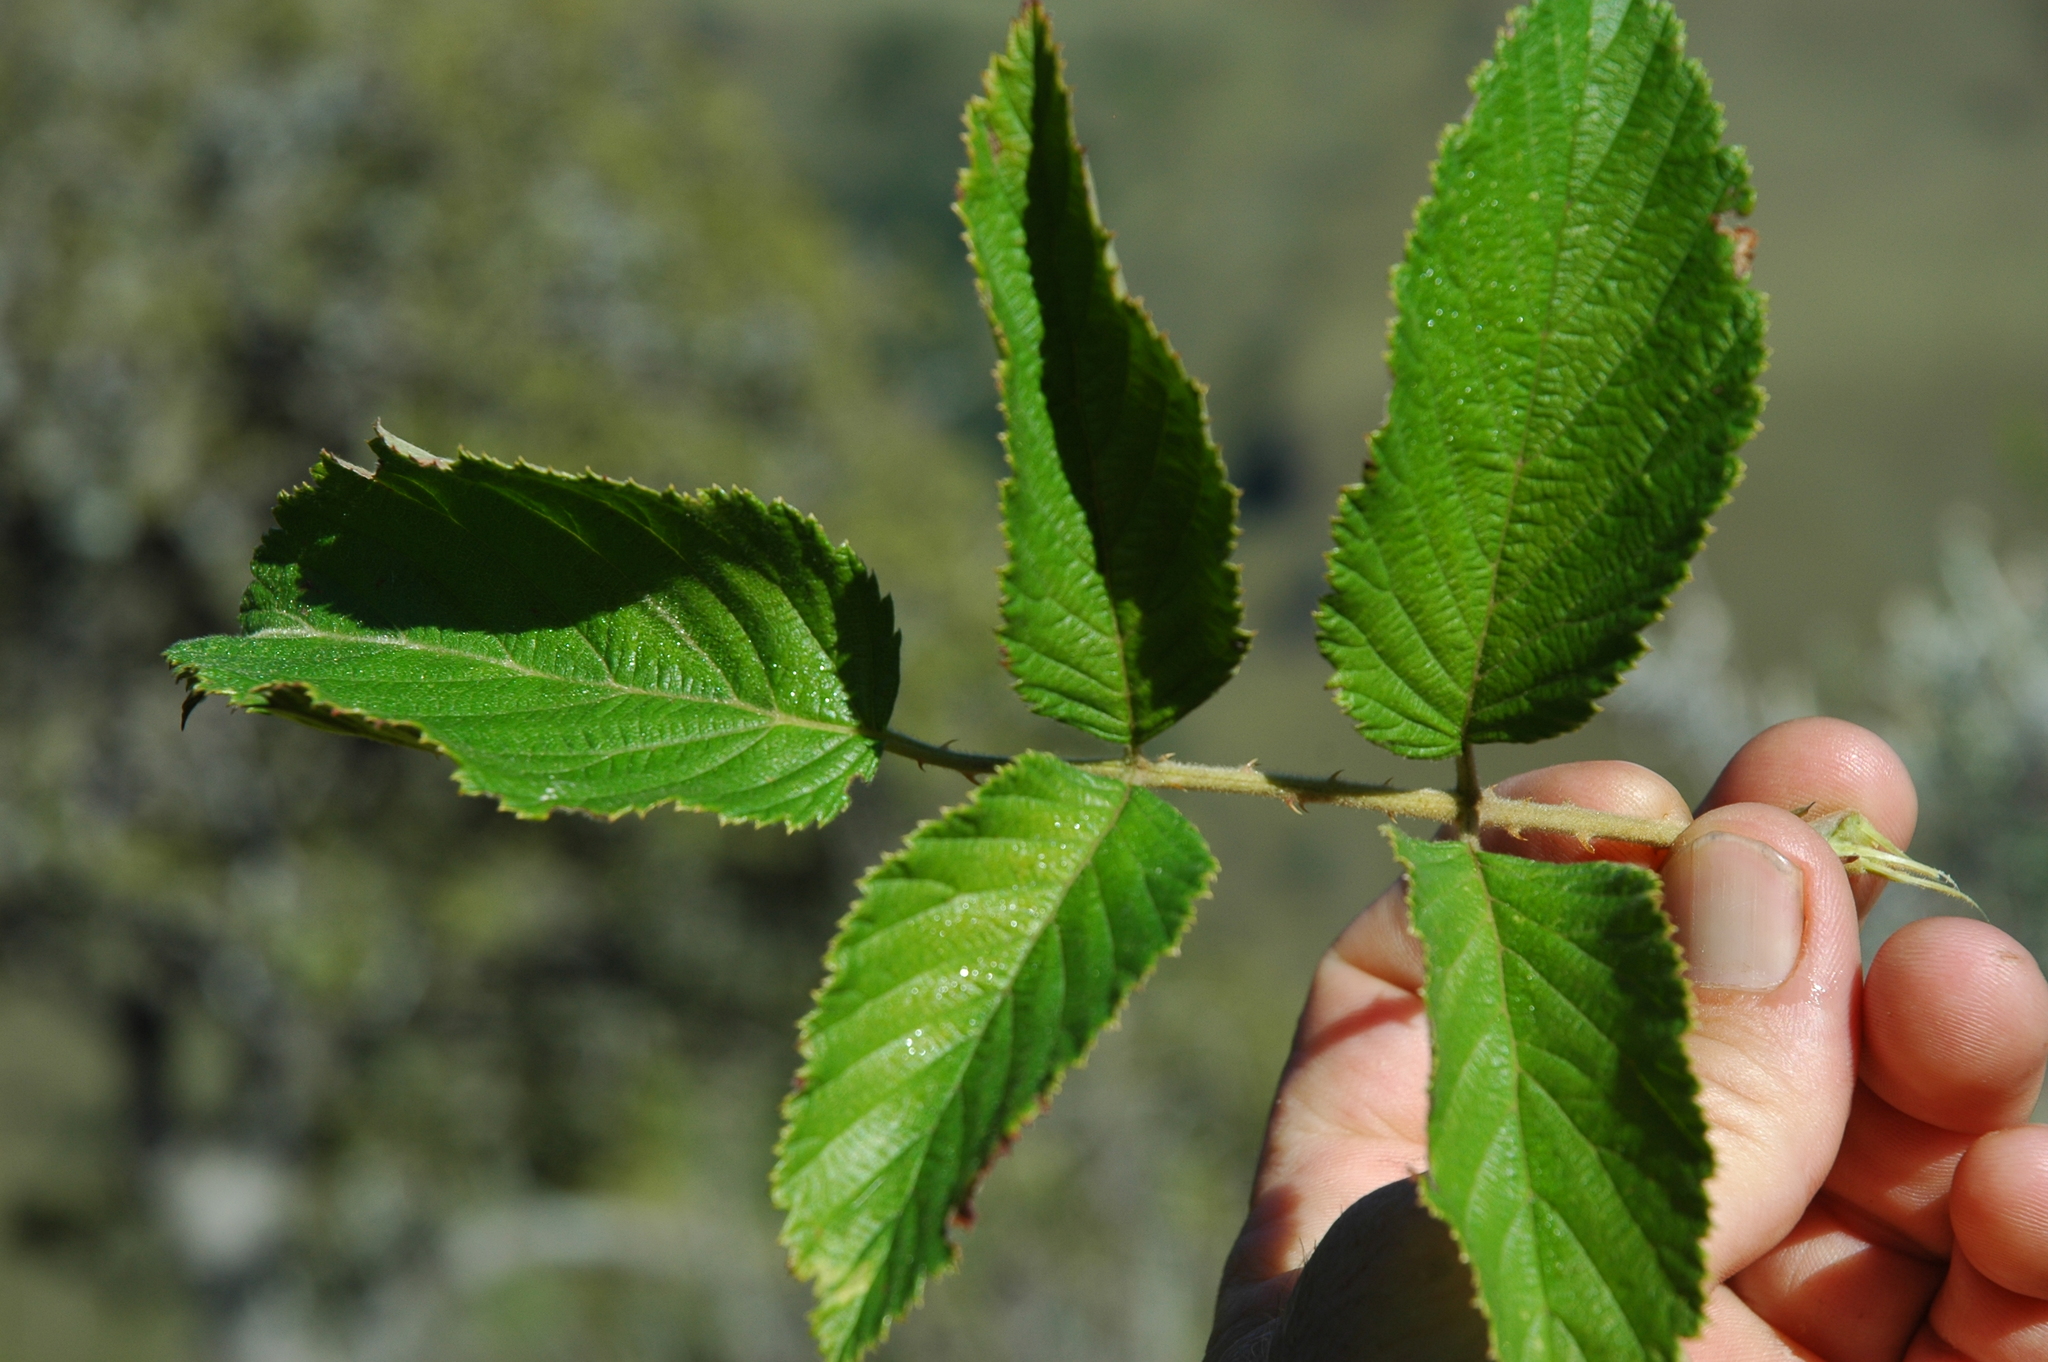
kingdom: Plantae
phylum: Tracheophyta
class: Magnoliopsida
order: Rosales
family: Rosaceae
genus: Rubus
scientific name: Rubus apetalus
